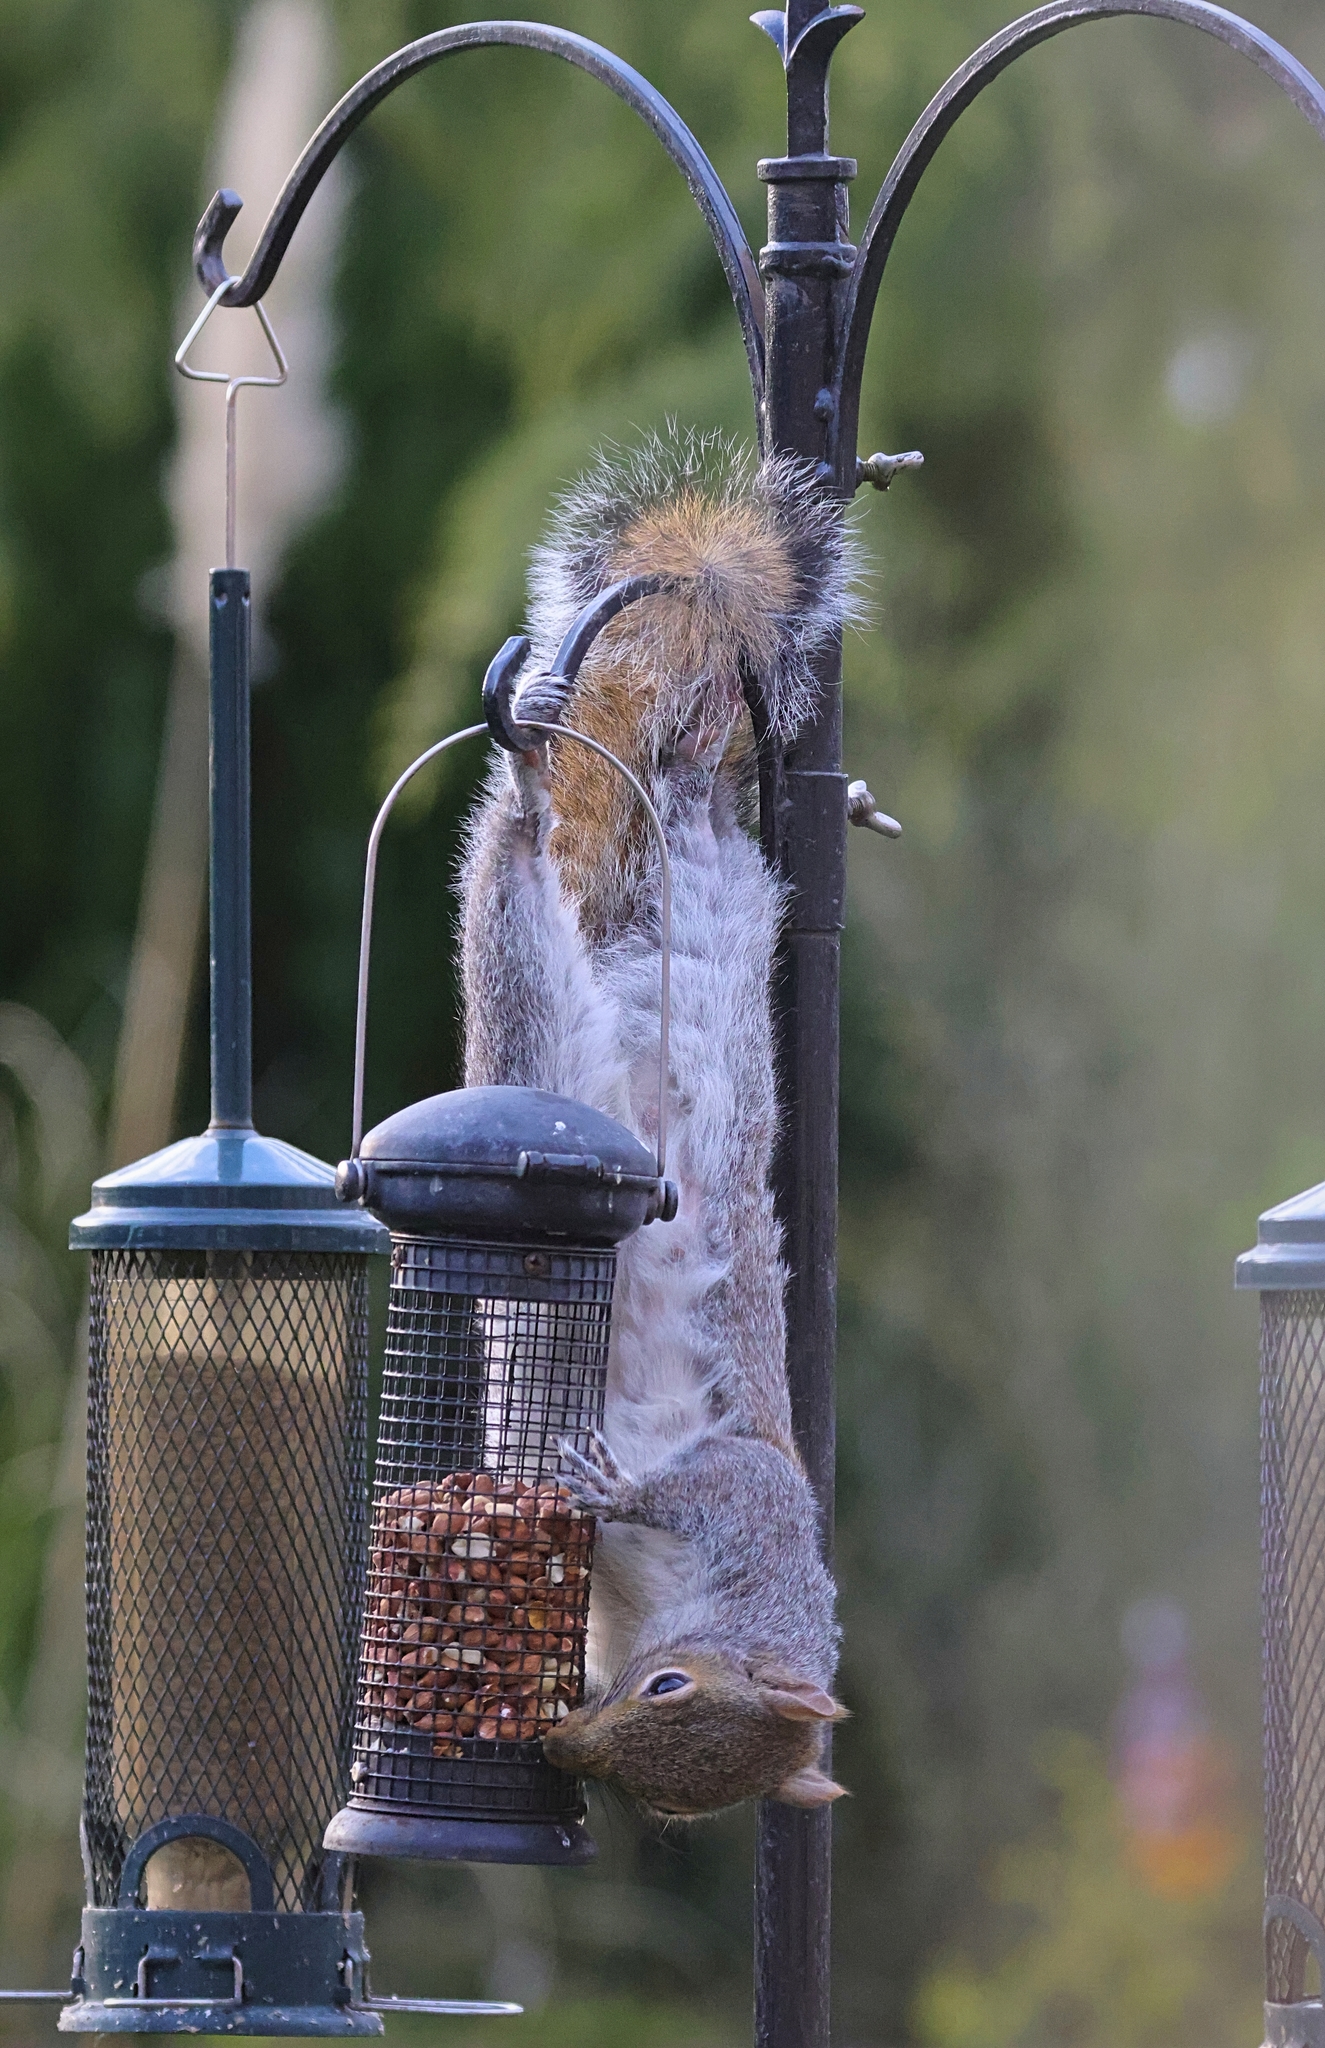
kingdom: Animalia
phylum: Chordata
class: Mammalia
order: Rodentia
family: Sciuridae
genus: Sciurus
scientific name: Sciurus carolinensis
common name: Eastern gray squirrel
